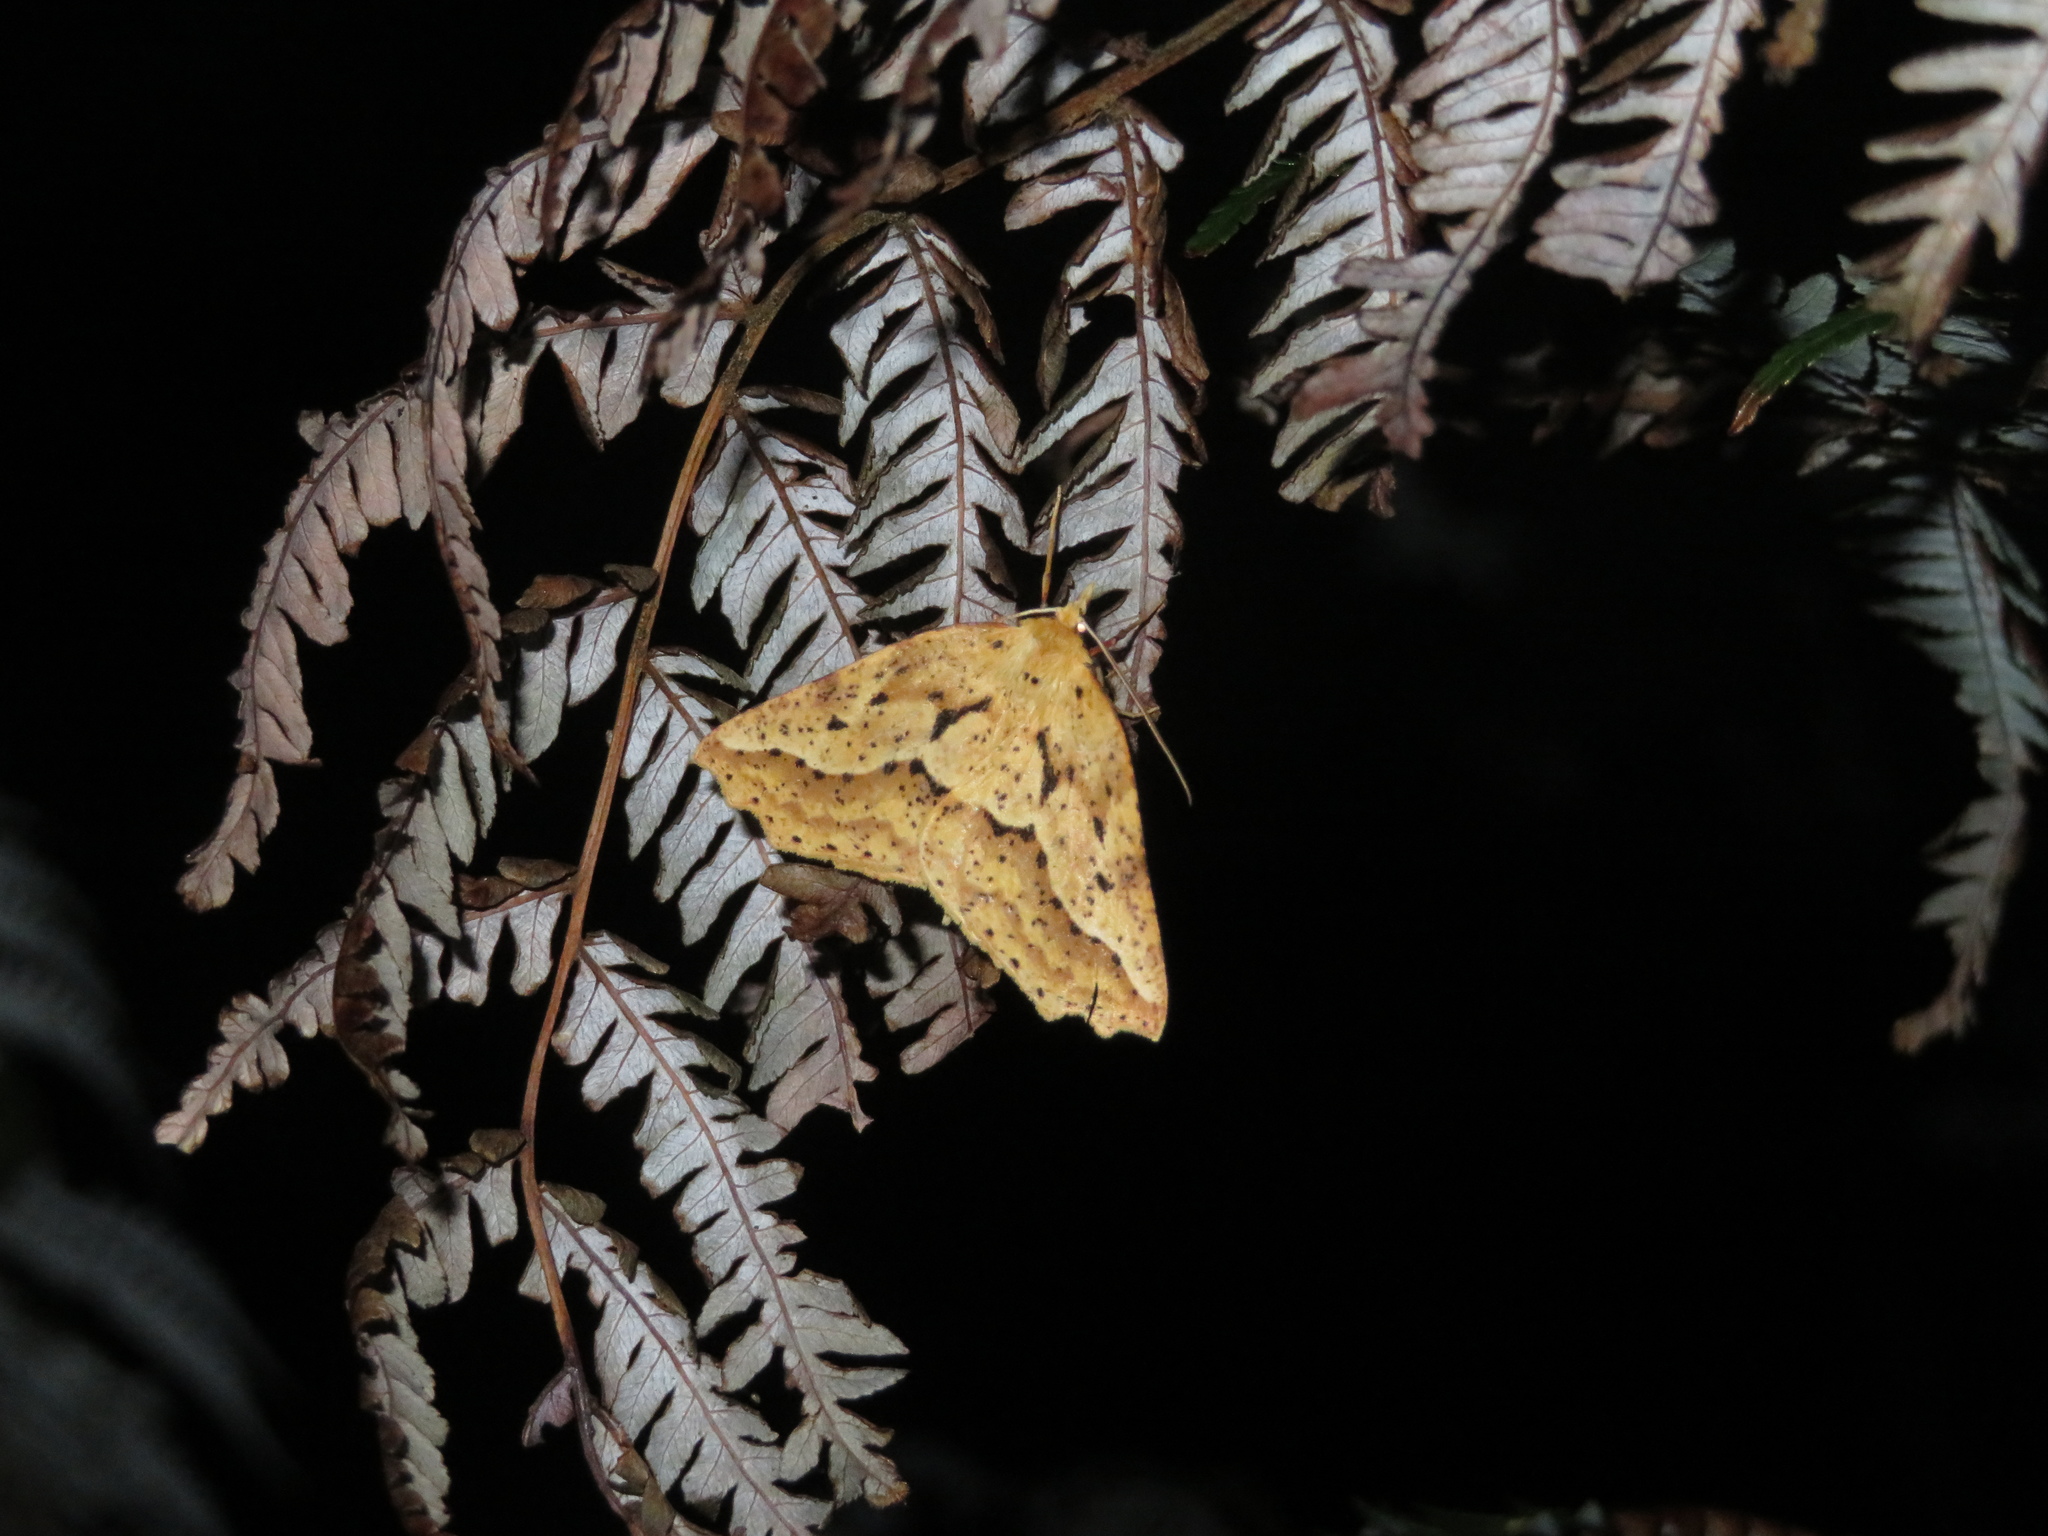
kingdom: Animalia
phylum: Arthropoda
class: Insecta
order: Lepidoptera
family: Geometridae
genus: Ischalis
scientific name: Ischalis variabilis
